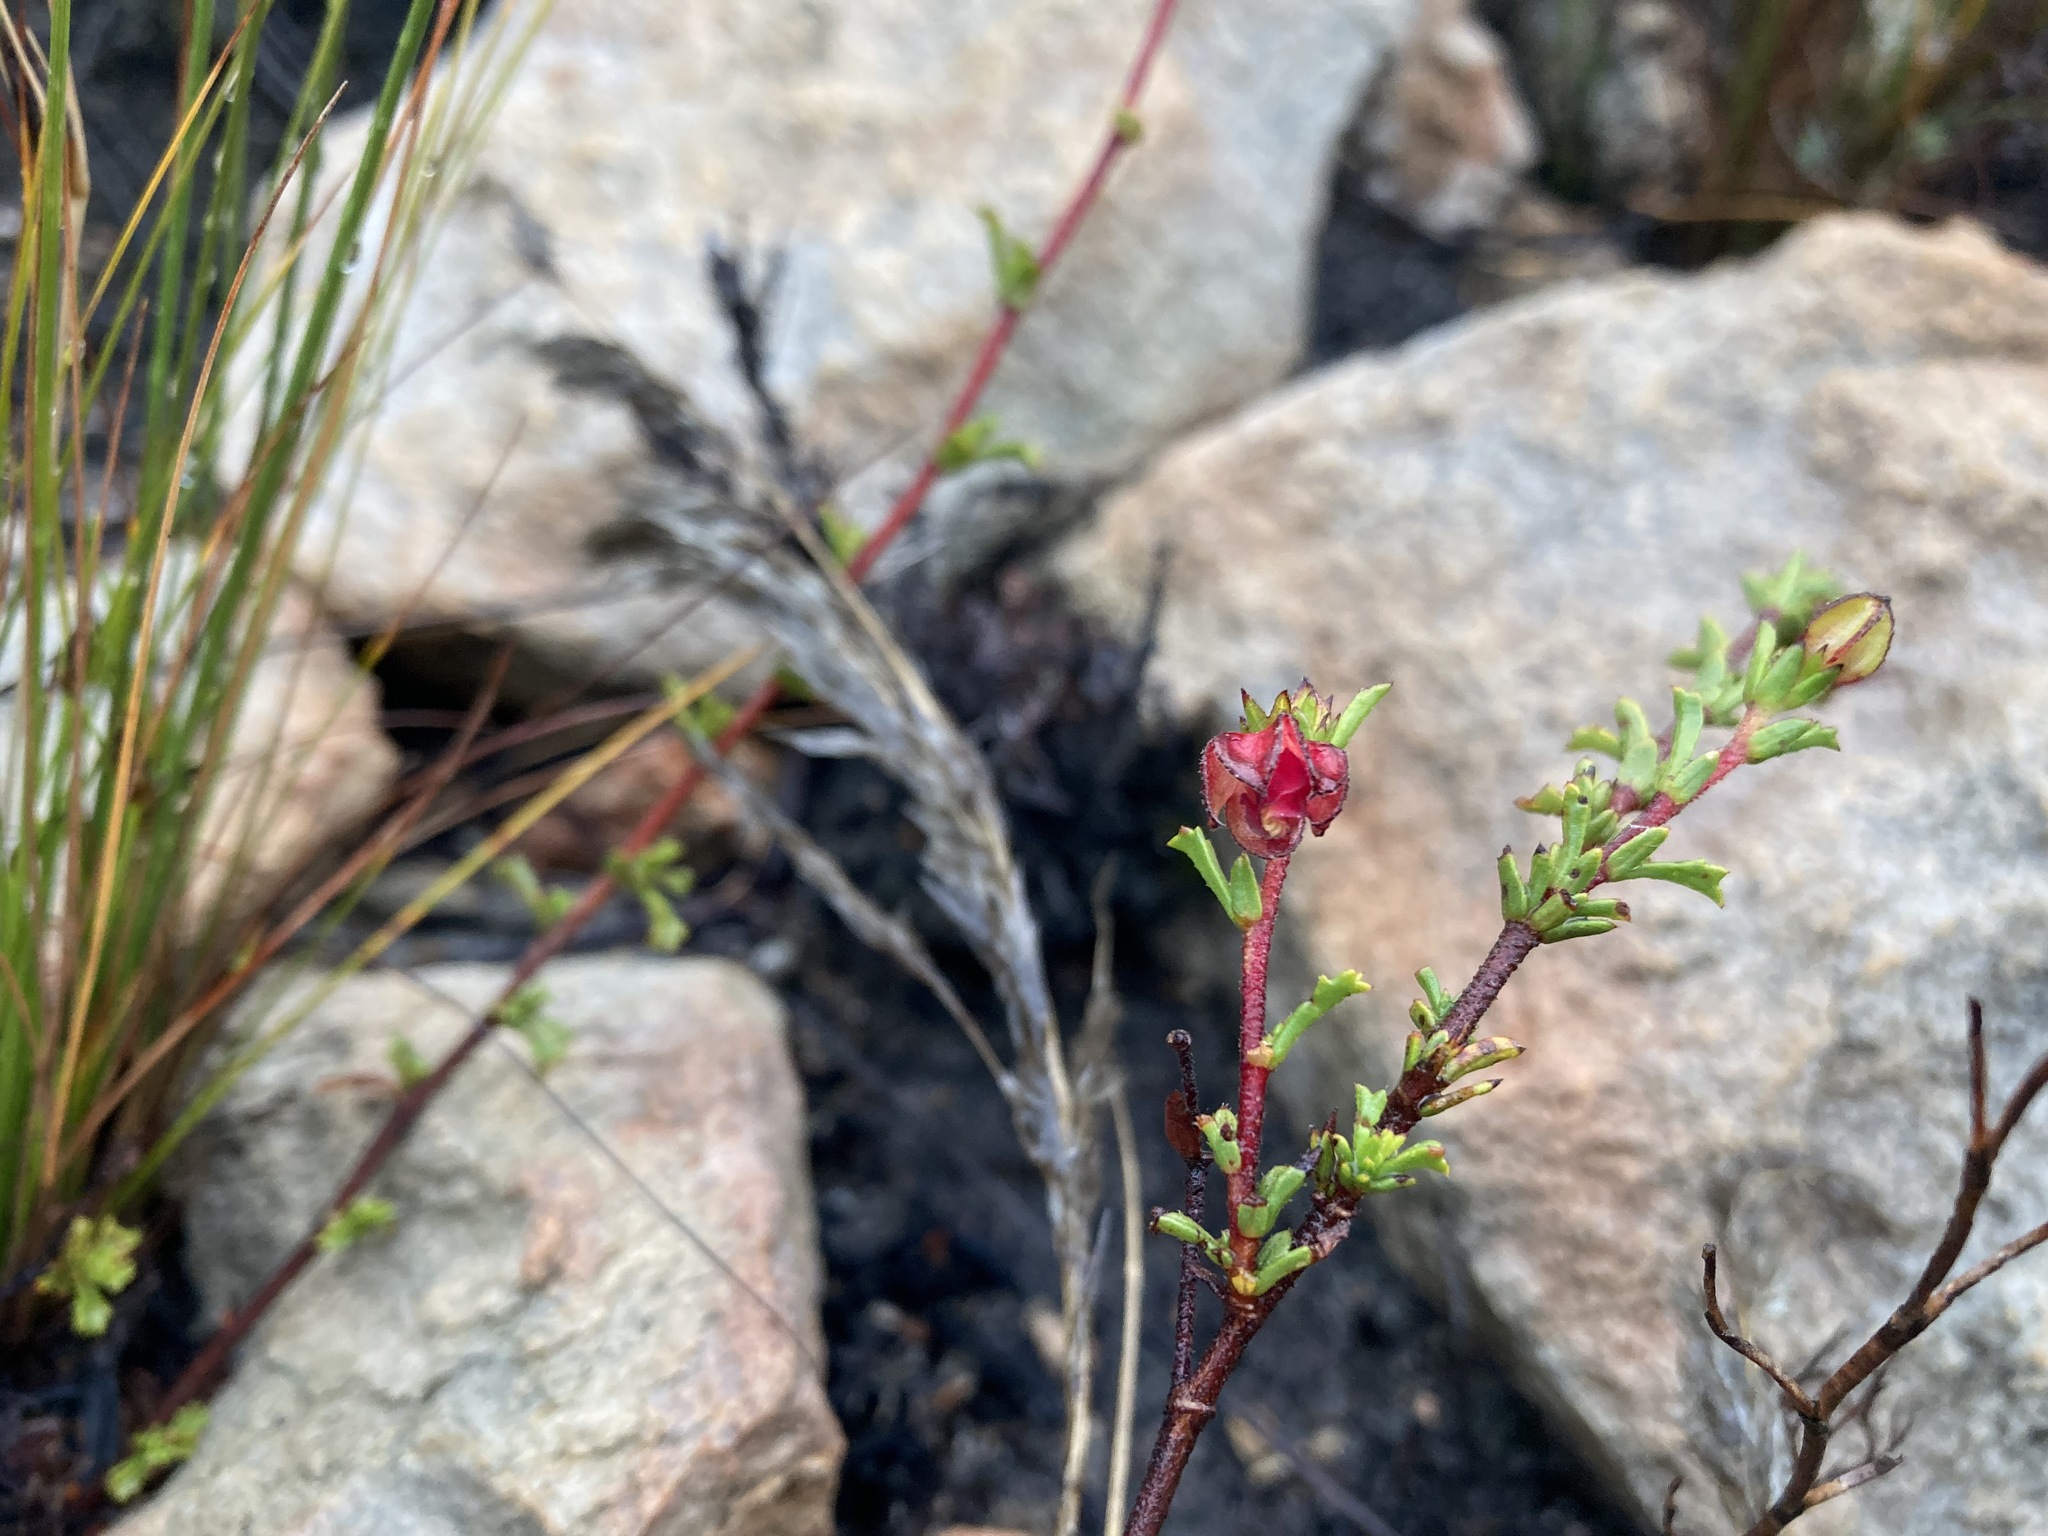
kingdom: Plantae
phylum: Tracheophyta
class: Magnoliopsida
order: Malvales
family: Malvaceae
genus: Hermannia
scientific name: Hermannia angularis
